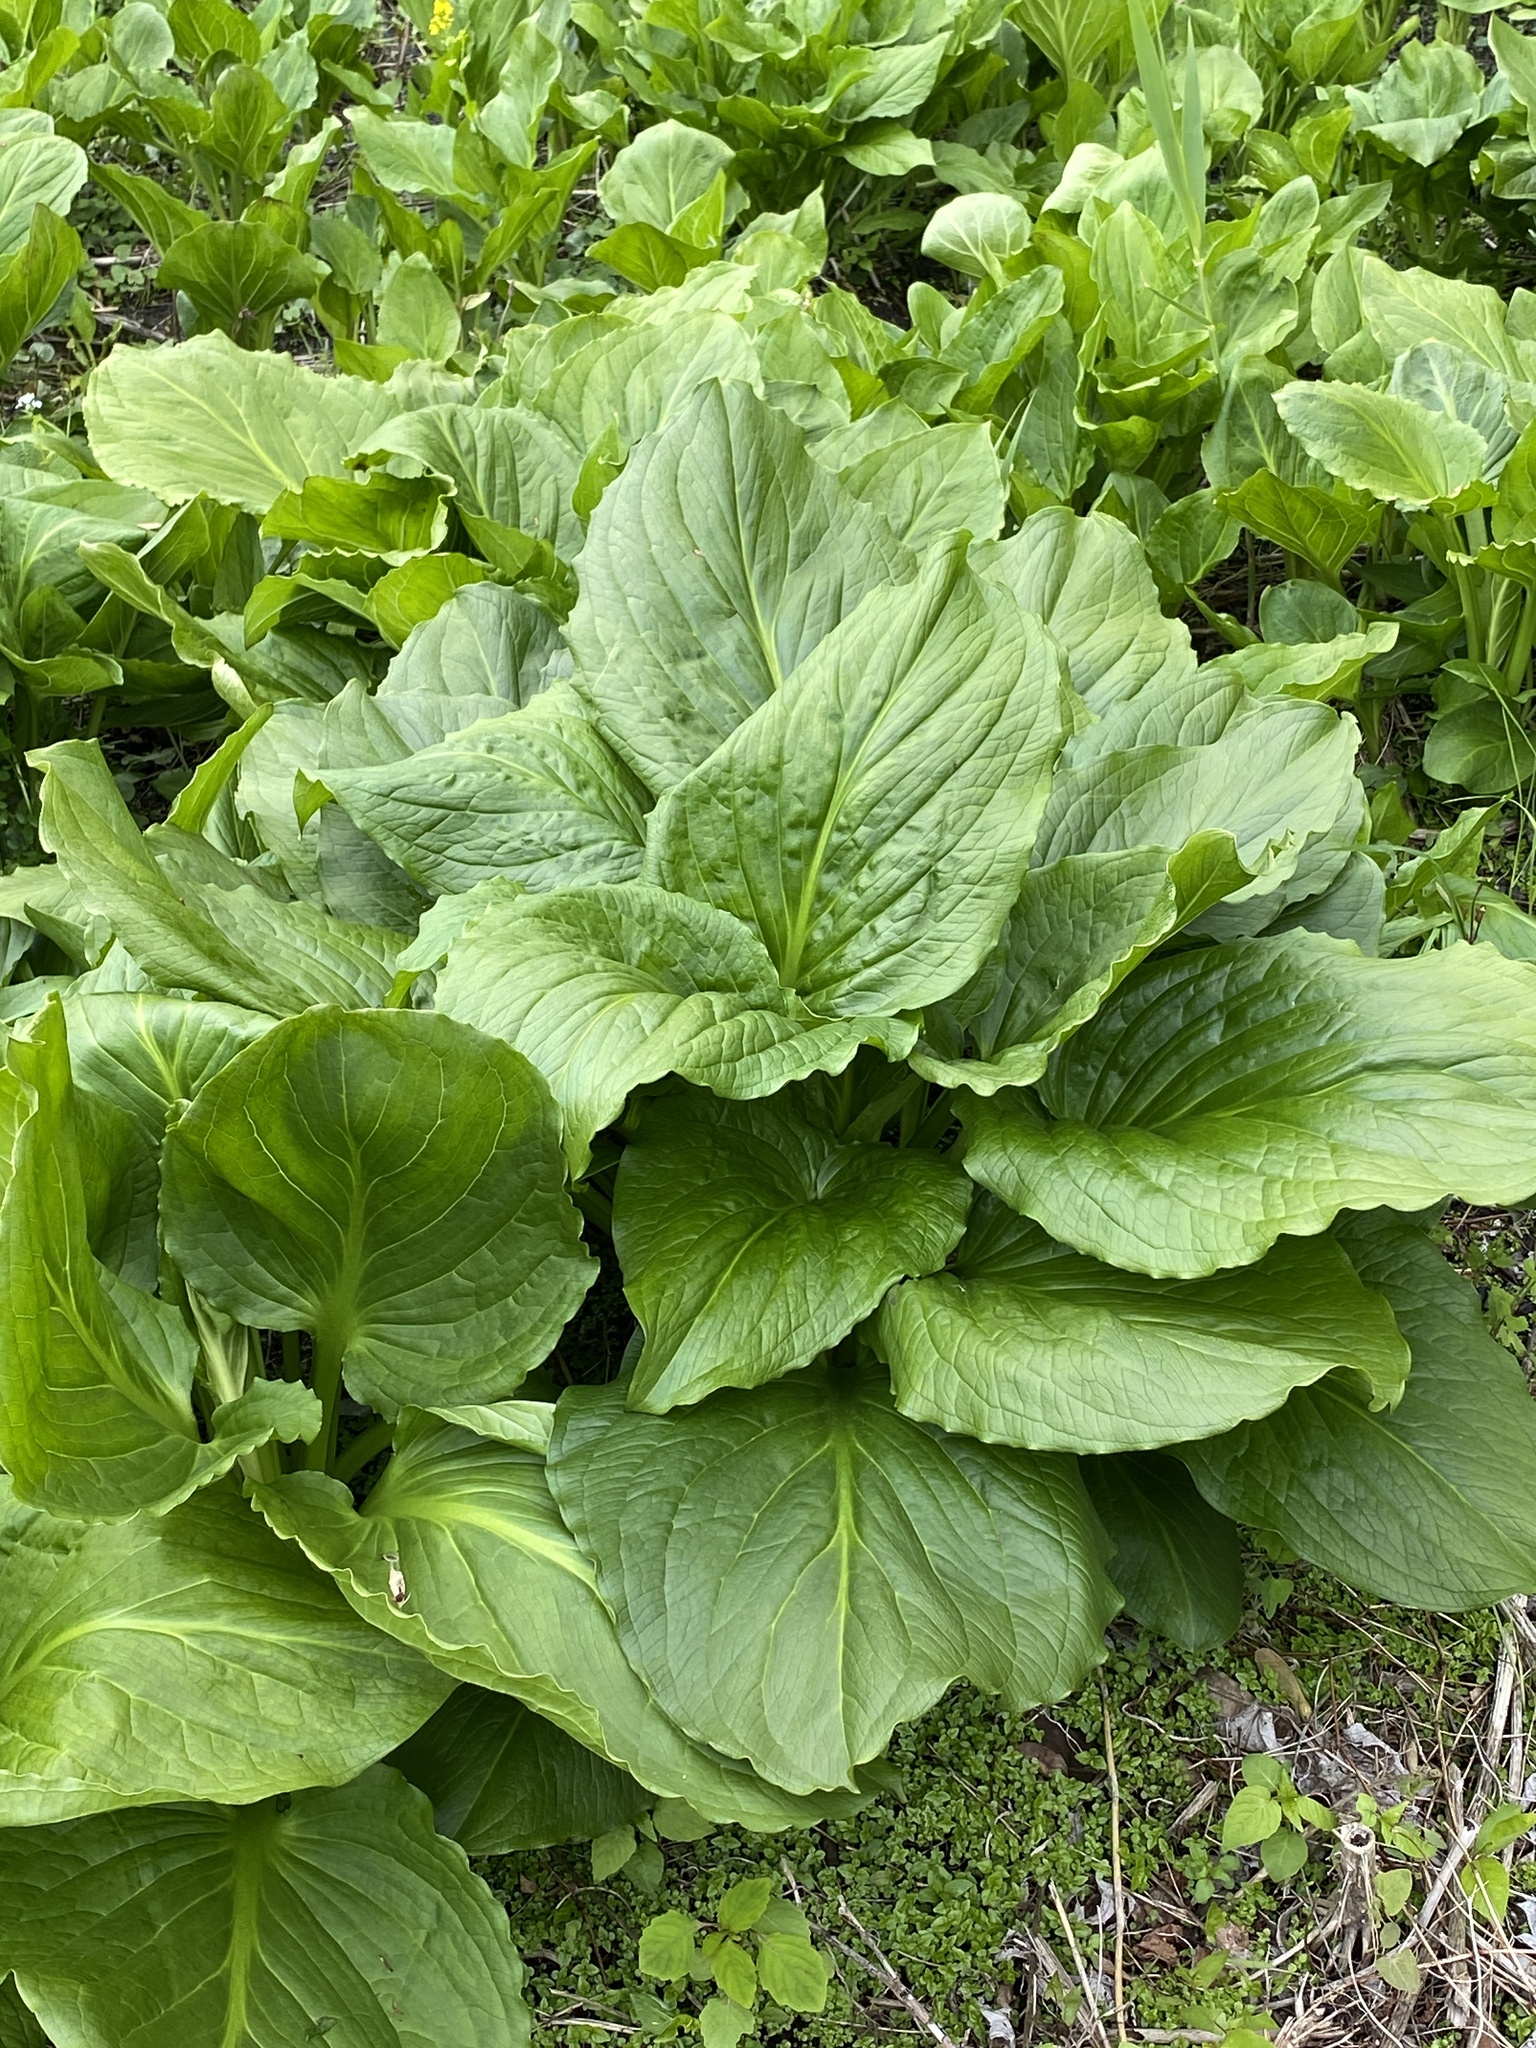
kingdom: Plantae
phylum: Tracheophyta
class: Liliopsida
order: Alismatales
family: Araceae
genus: Symplocarpus
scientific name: Symplocarpus foetidus
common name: Eastern skunk cabbage
